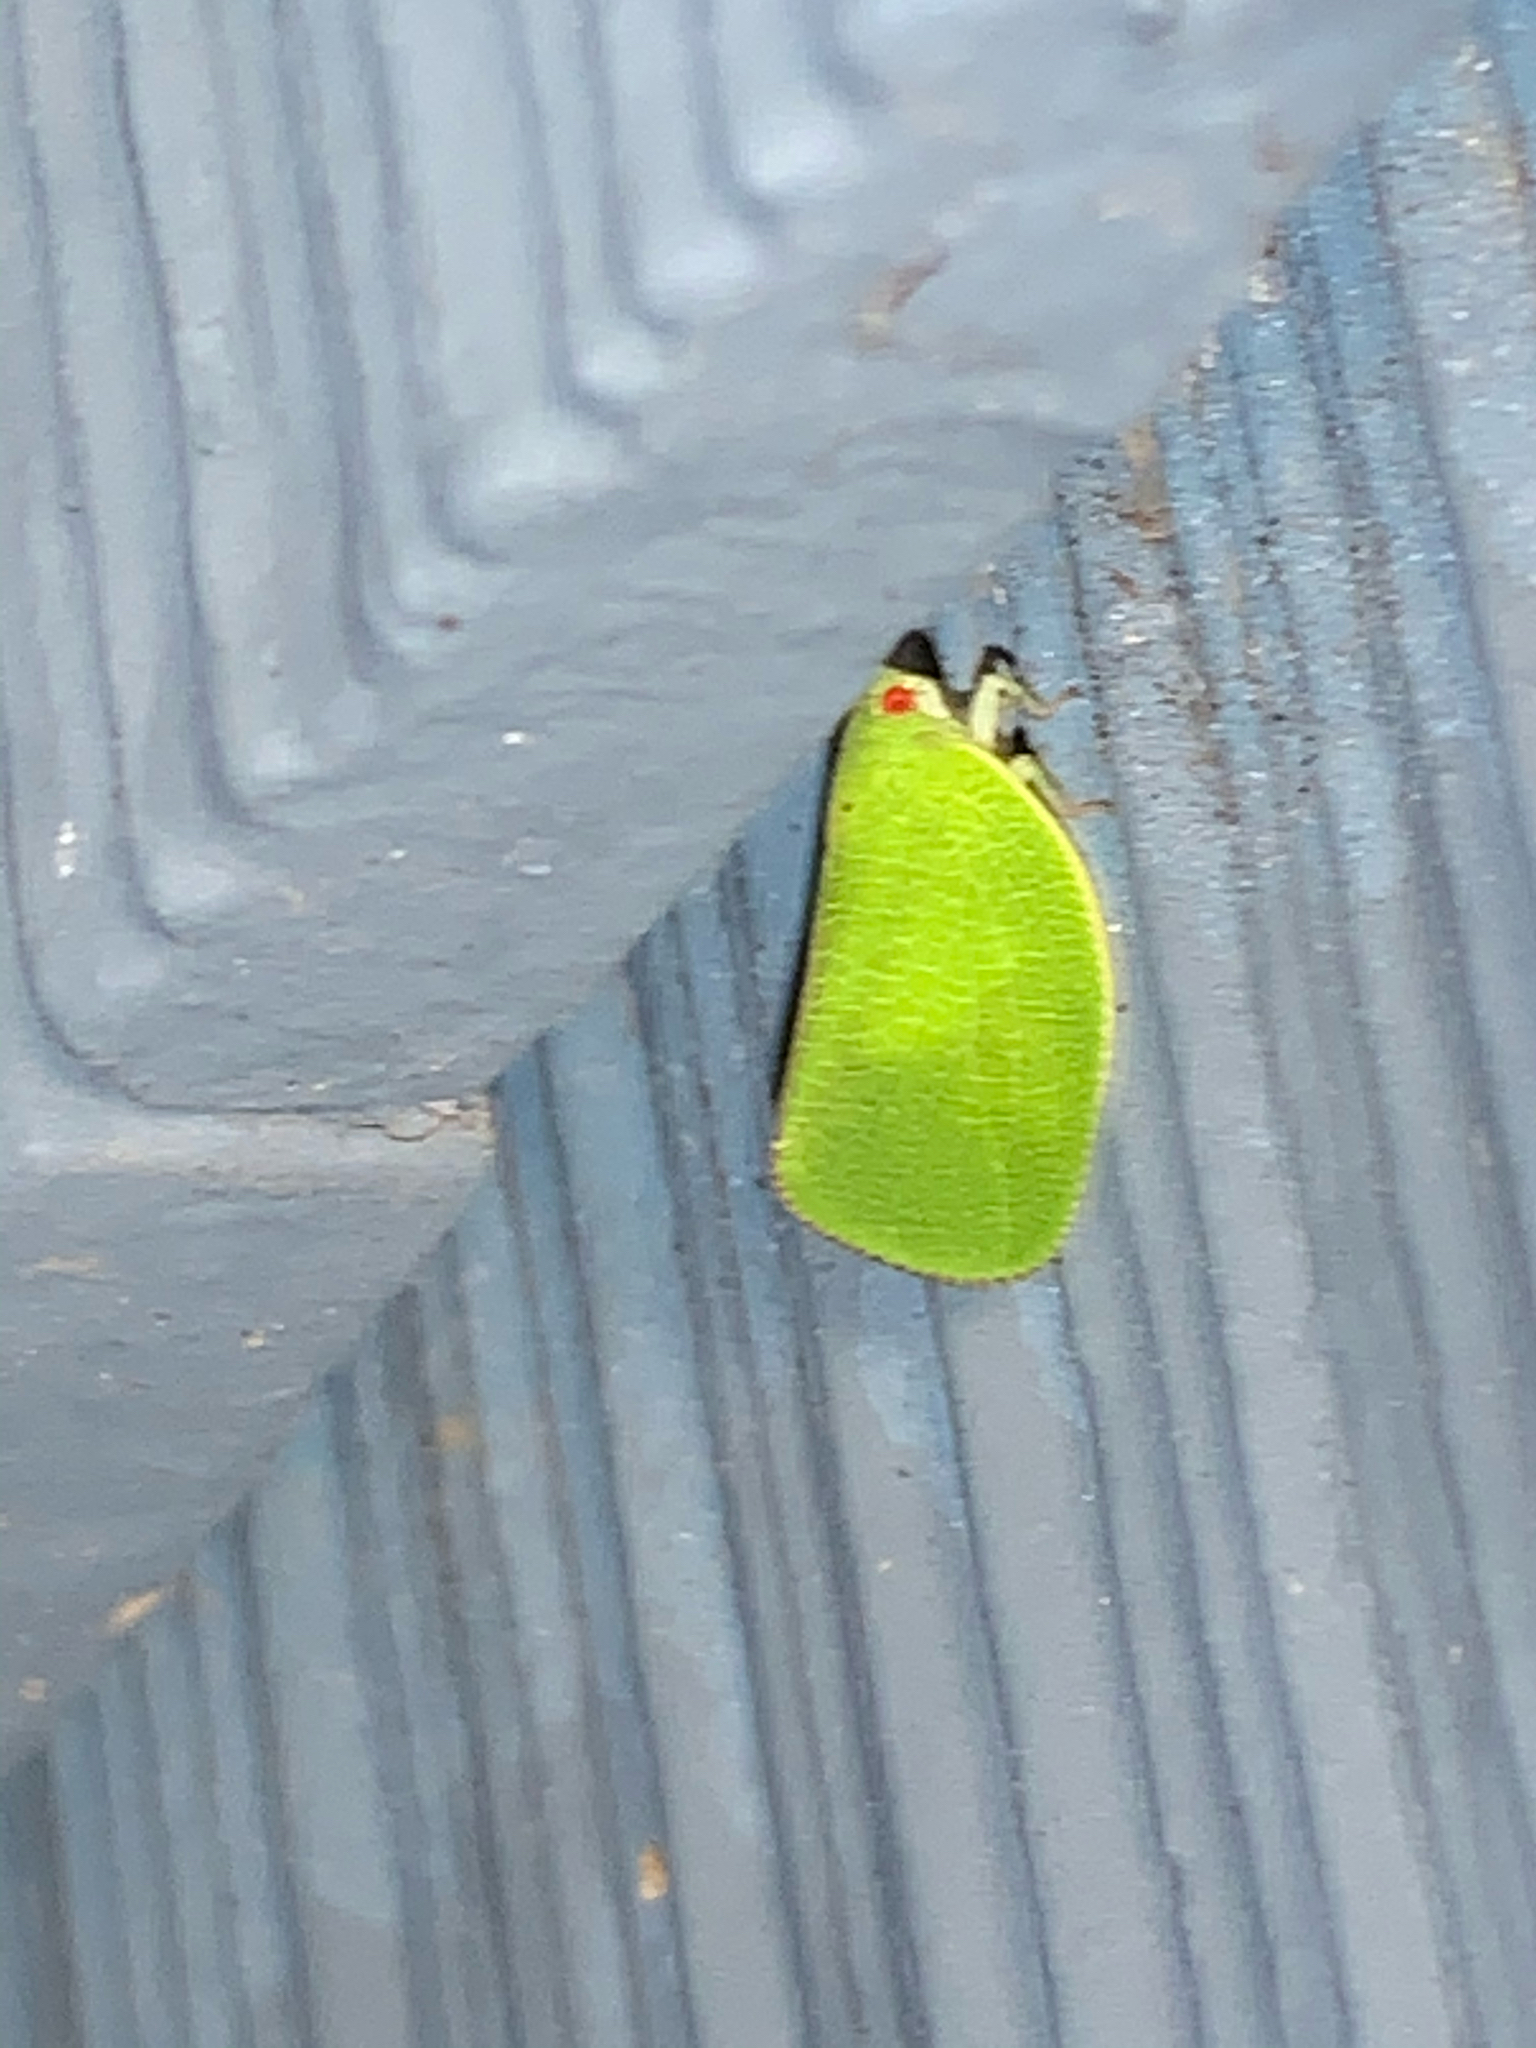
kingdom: Animalia
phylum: Arthropoda
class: Insecta
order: Hemiptera
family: Acanaloniidae
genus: Acanalonia
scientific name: Acanalonia conica
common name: Green cone-headed planthopper
